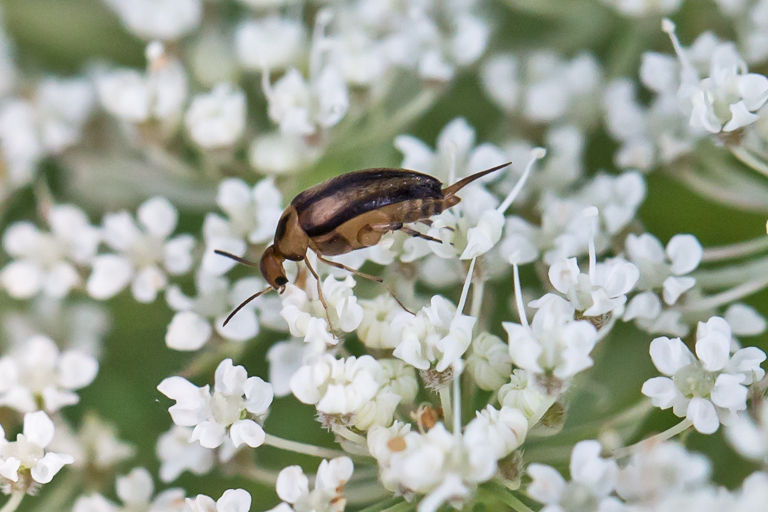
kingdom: Animalia
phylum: Arthropoda
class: Insecta
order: Coleoptera
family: Mordellidae
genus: Mordellistena
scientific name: Mordellistena limbalis
